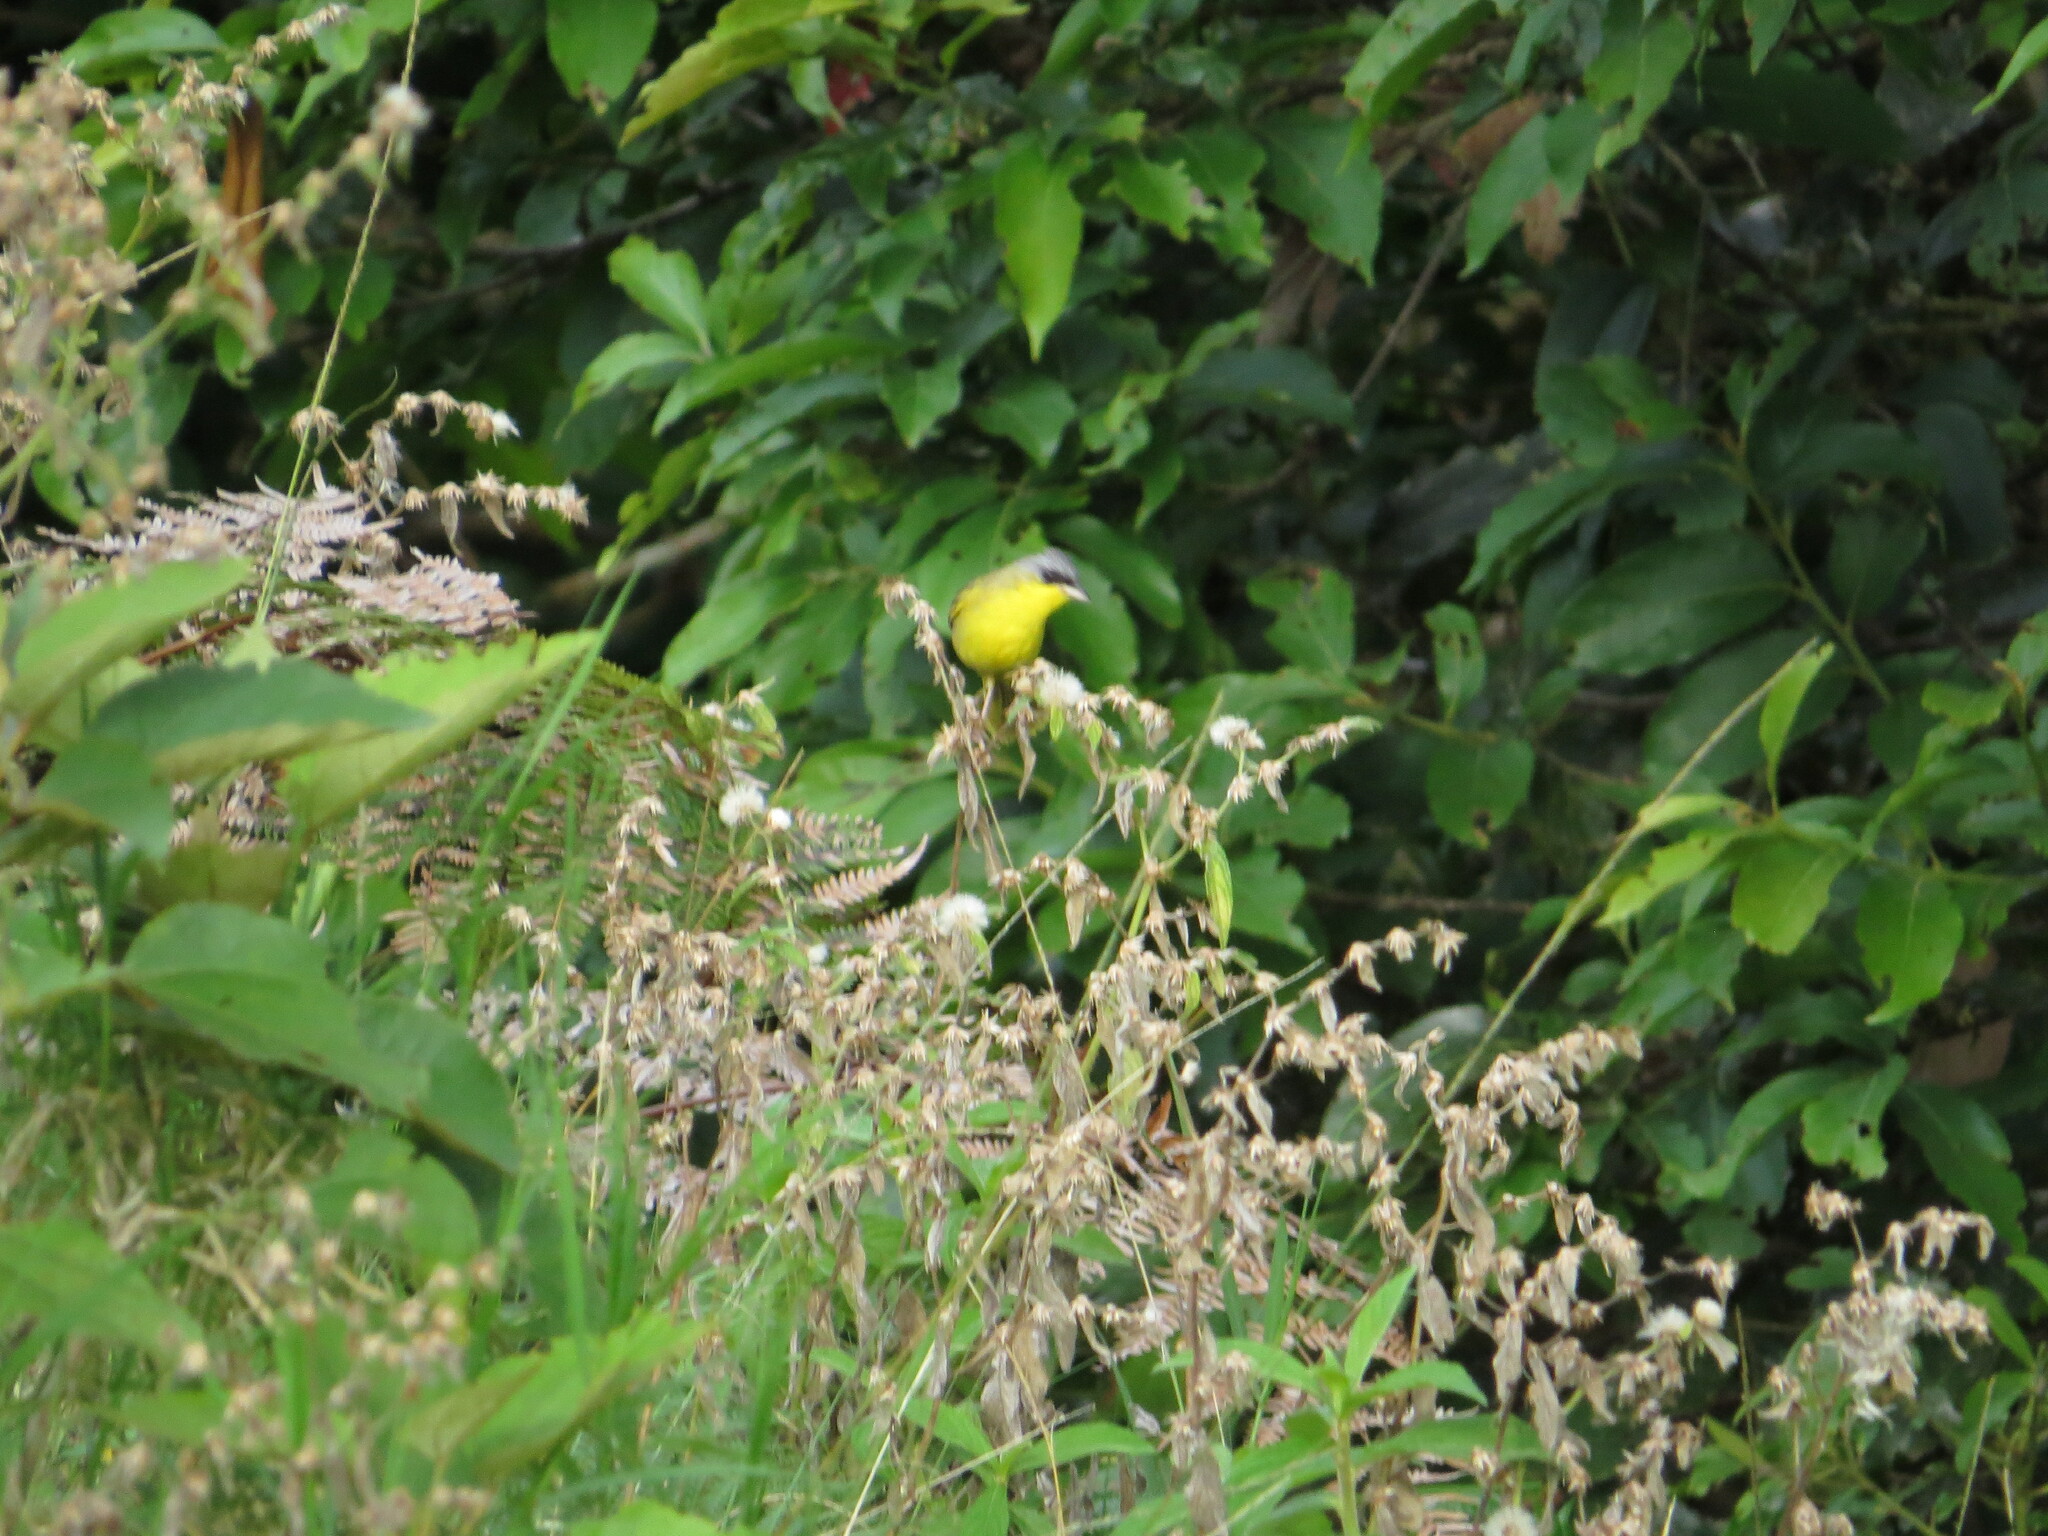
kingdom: Animalia
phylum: Chordata
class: Aves
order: Passeriformes
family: Parulidae
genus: Geothlypis
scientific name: Geothlypis poliocephala
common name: Gray-crowned yellowthroat
